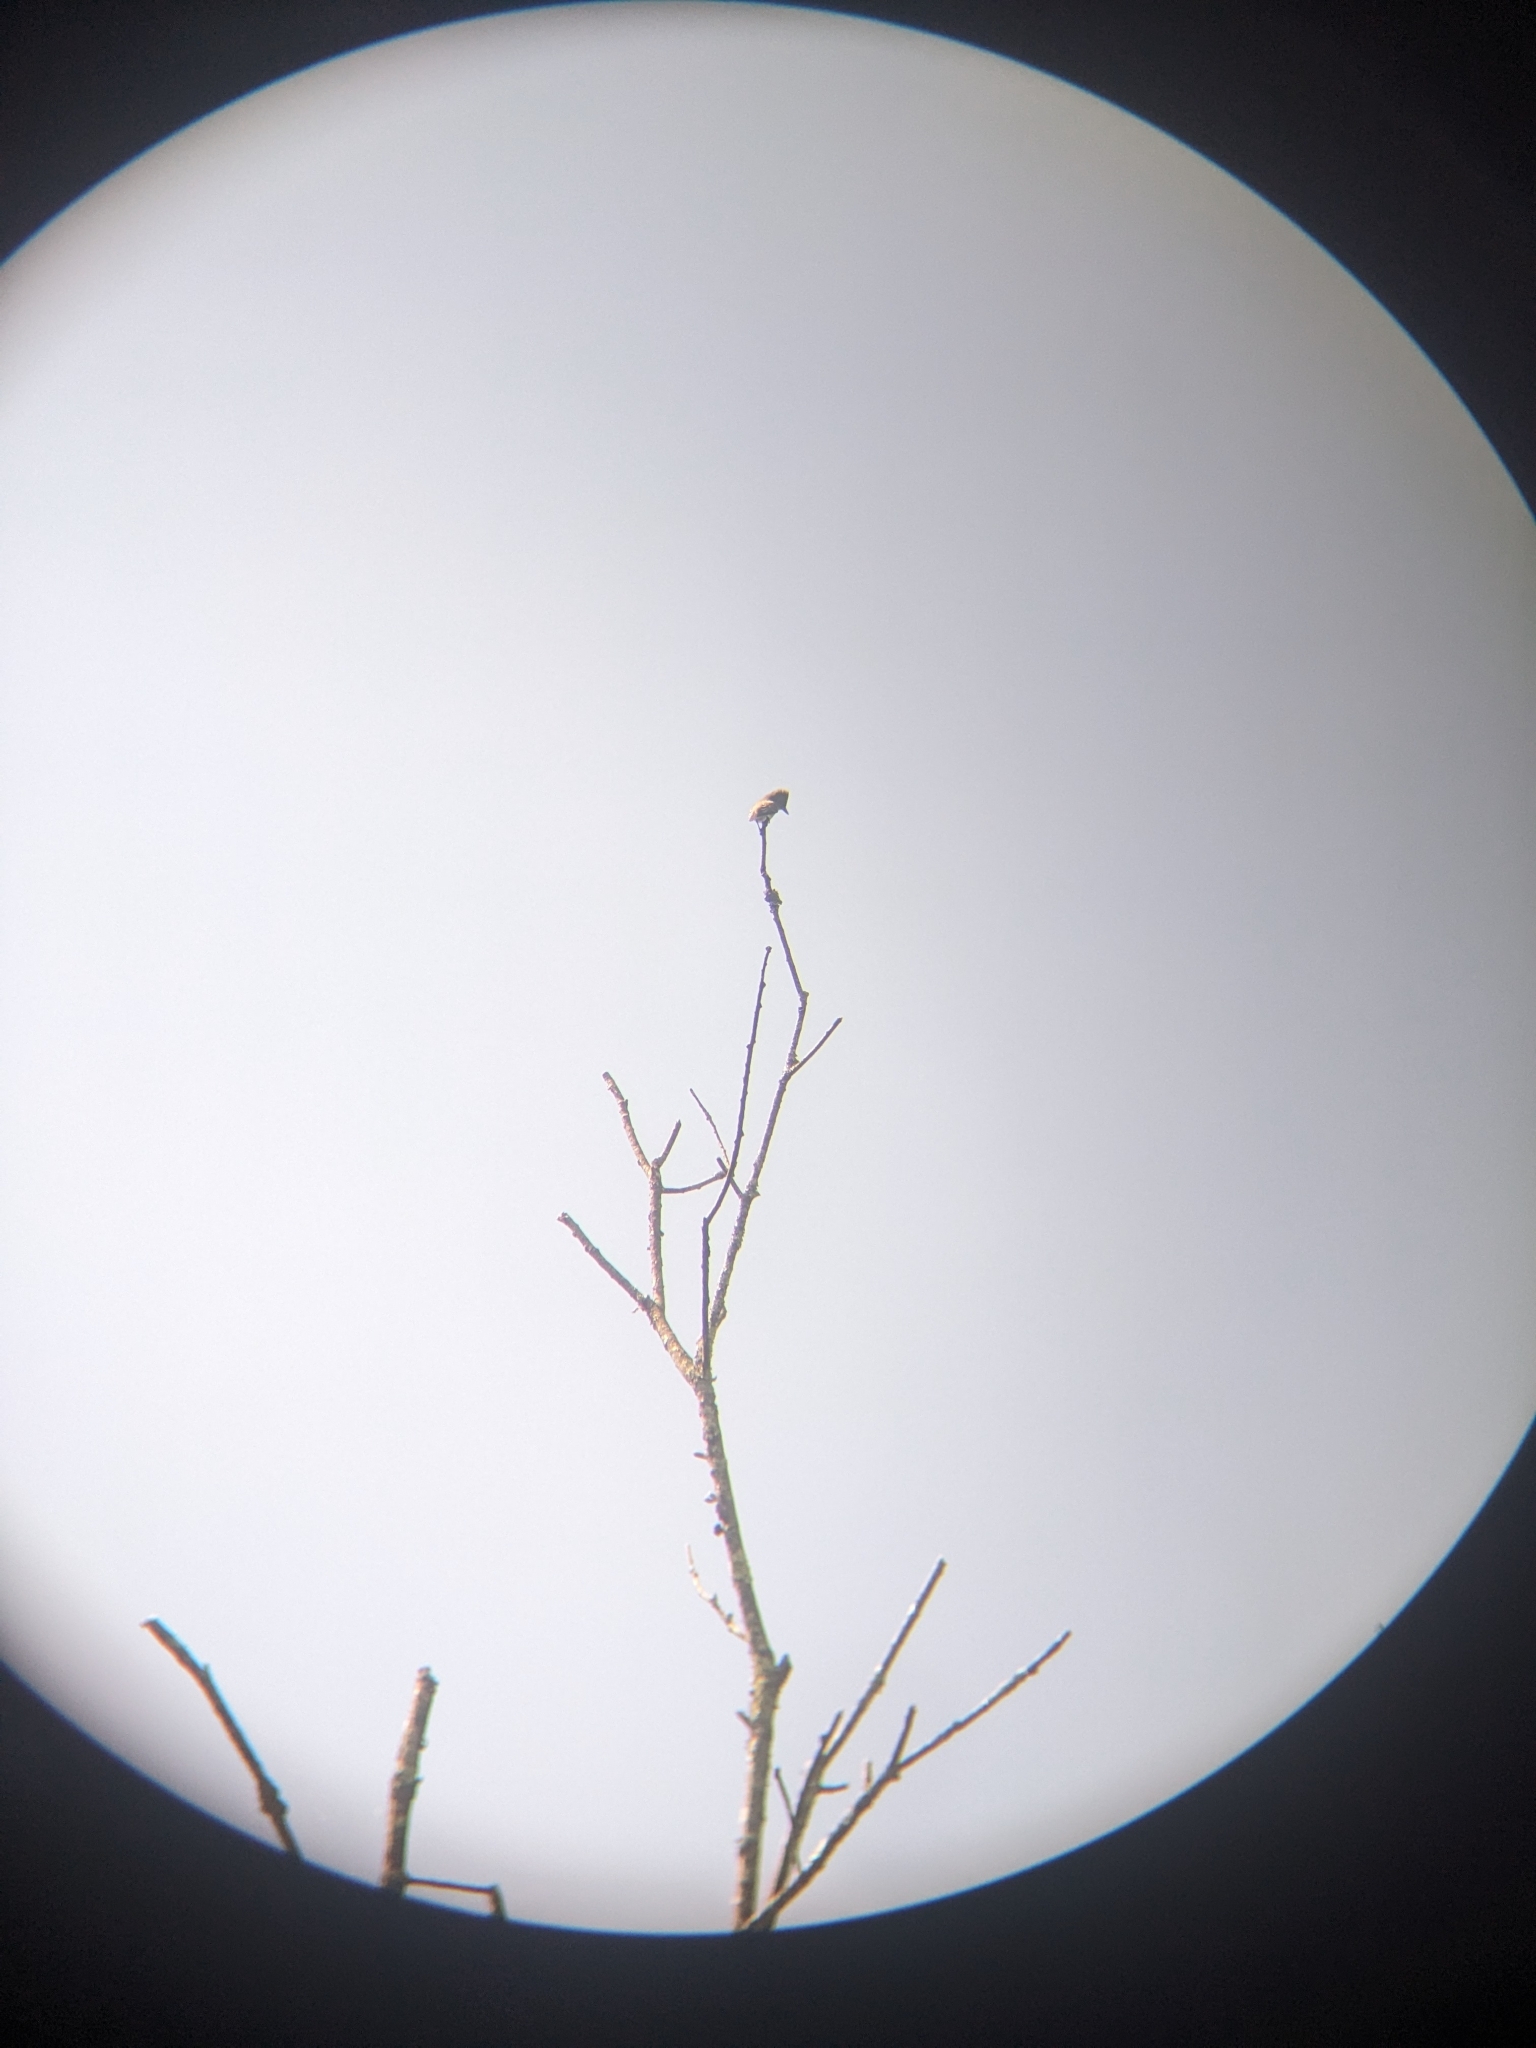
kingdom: Animalia
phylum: Chordata
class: Aves
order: Passeriformes
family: Tyrannidae
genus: Contopus
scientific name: Contopus cooperi
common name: Olive-sided flycatcher
